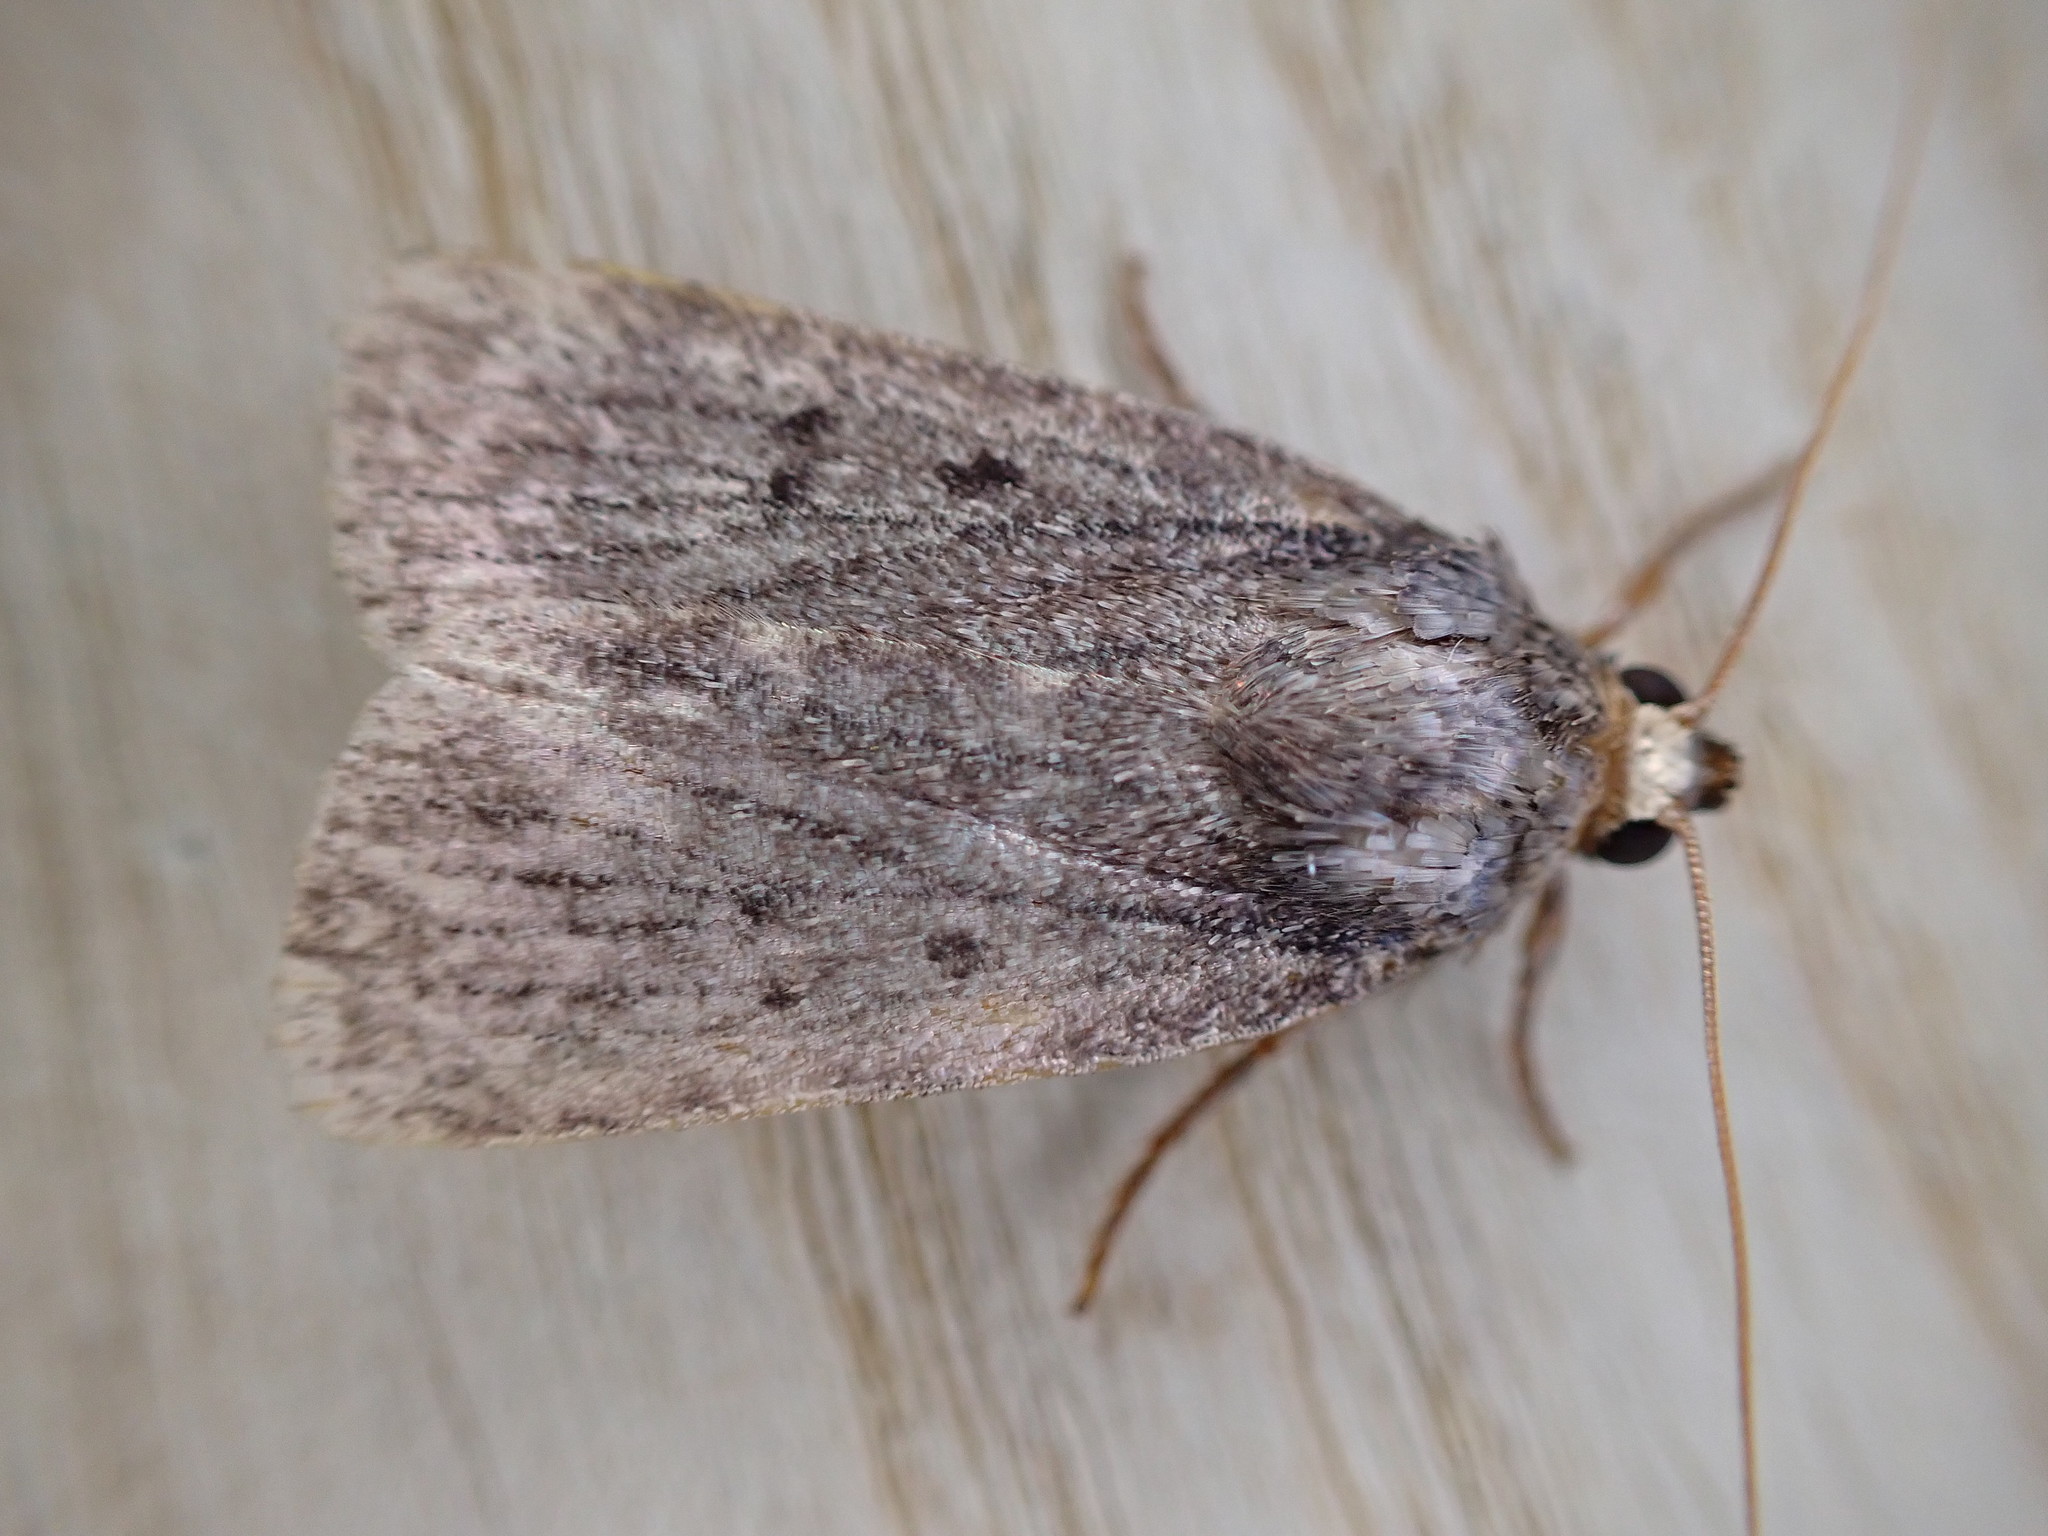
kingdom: Animalia
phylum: Arthropoda
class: Insecta
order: Lepidoptera
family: Noctuidae
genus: Amphipyra
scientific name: Amphipyra tragopoginis
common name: Mouse moth
